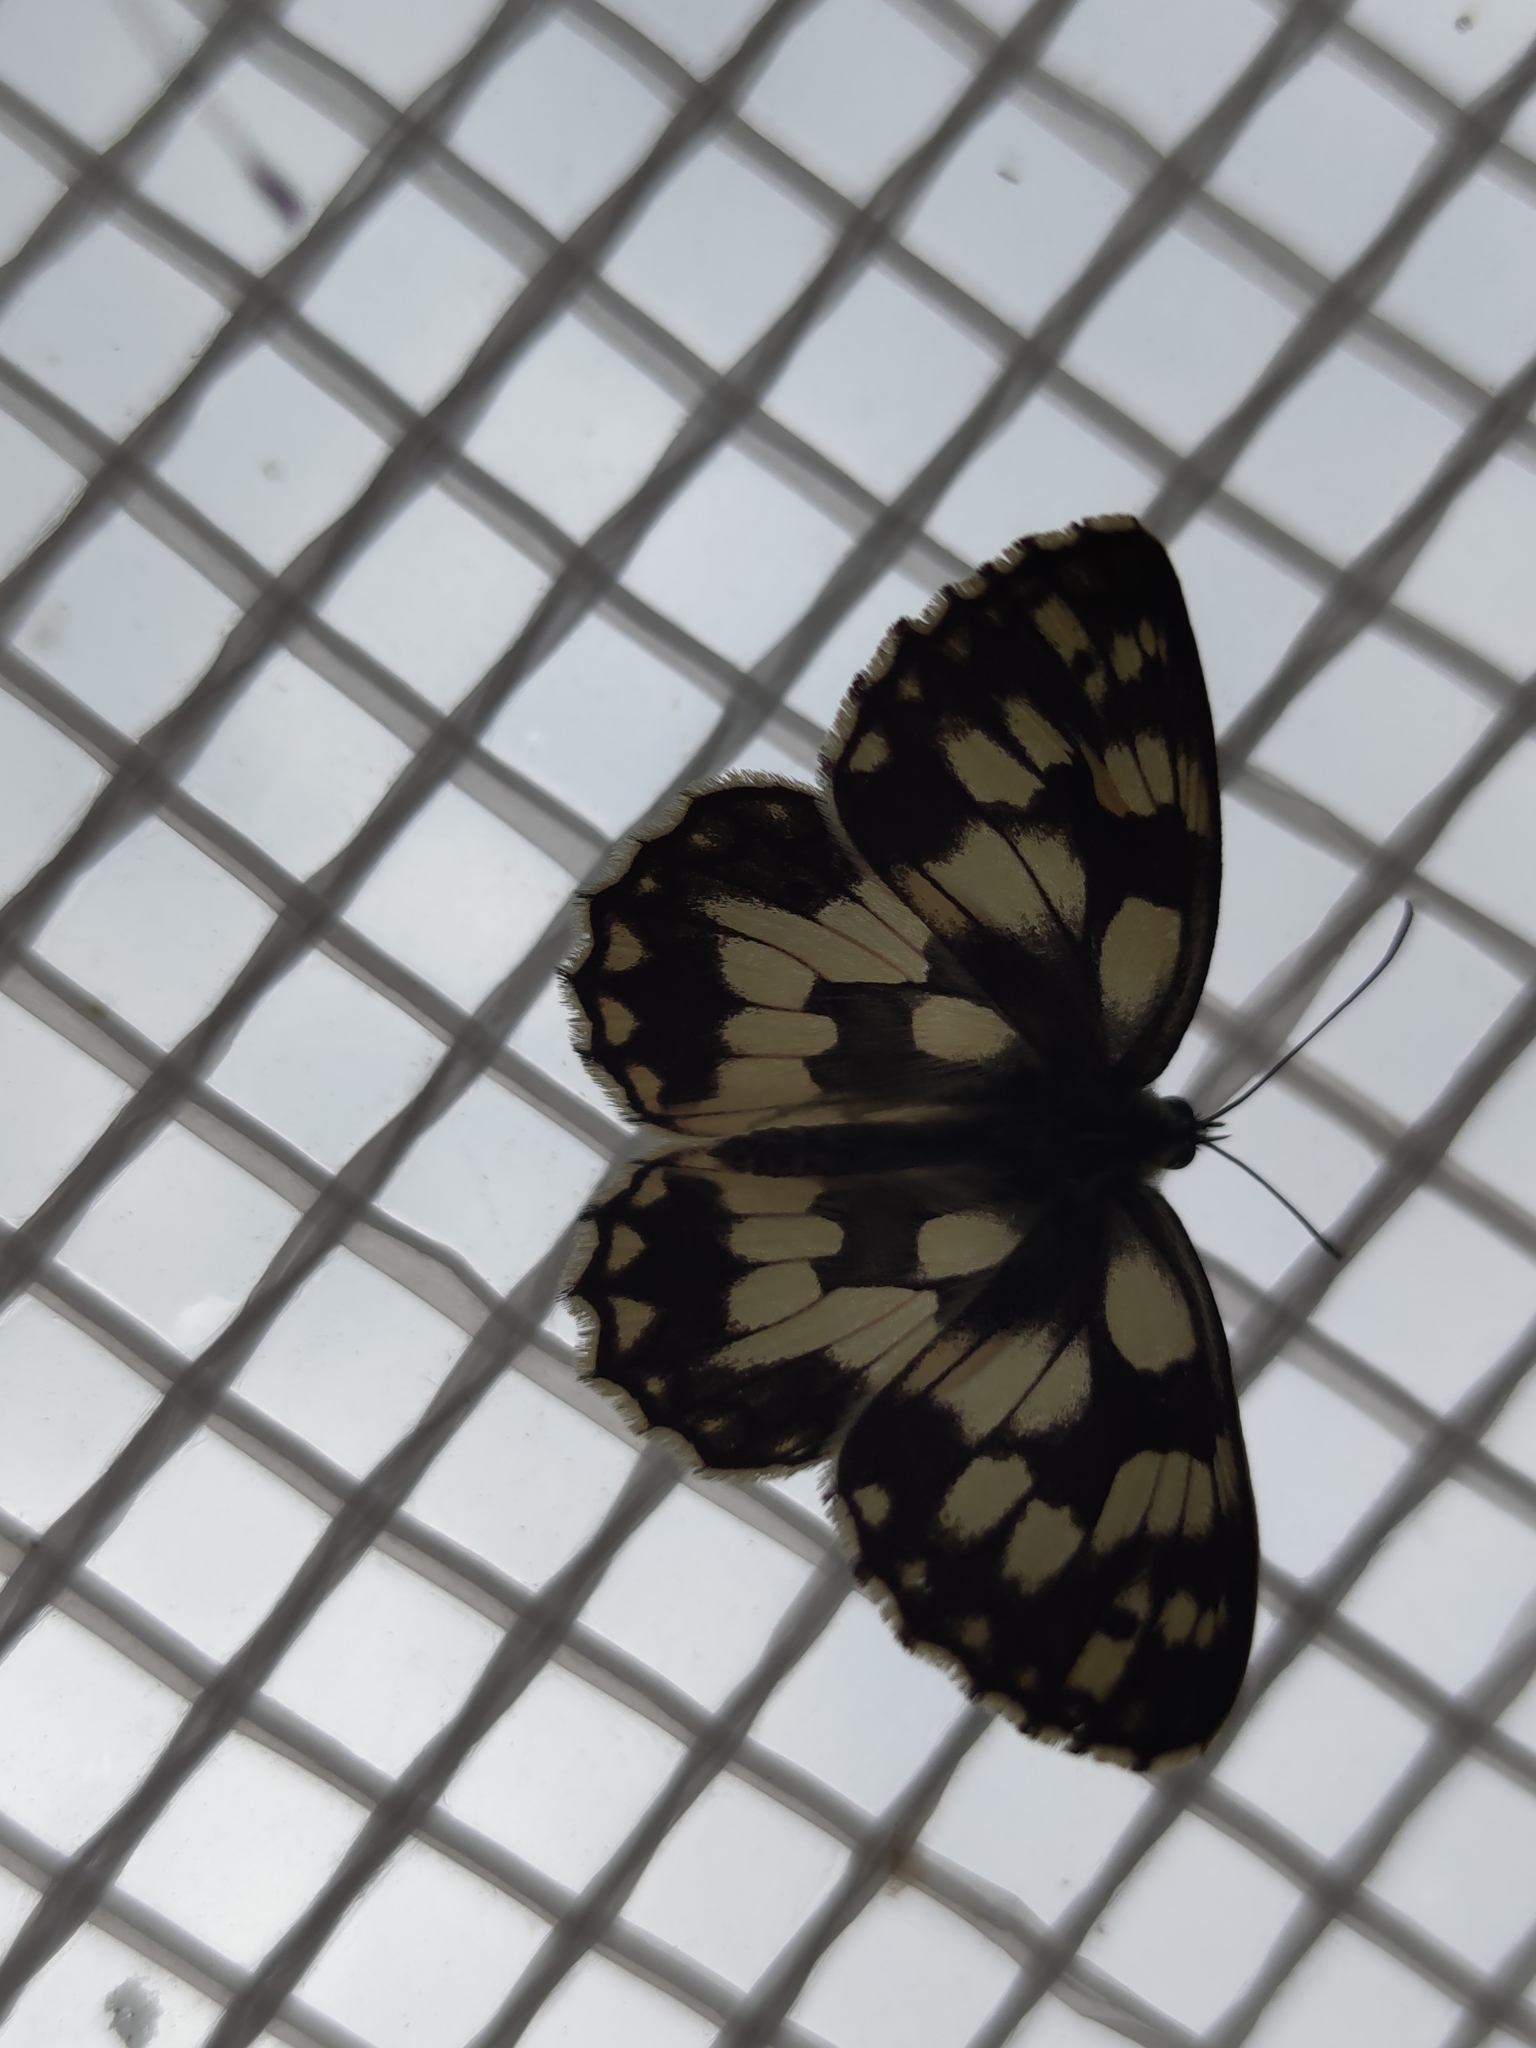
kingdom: Animalia
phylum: Arthropoda
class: Insecta
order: Lepidoptera
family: Nymphalidae
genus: Melanargia
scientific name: Melanargia galathea
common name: Marbled white
